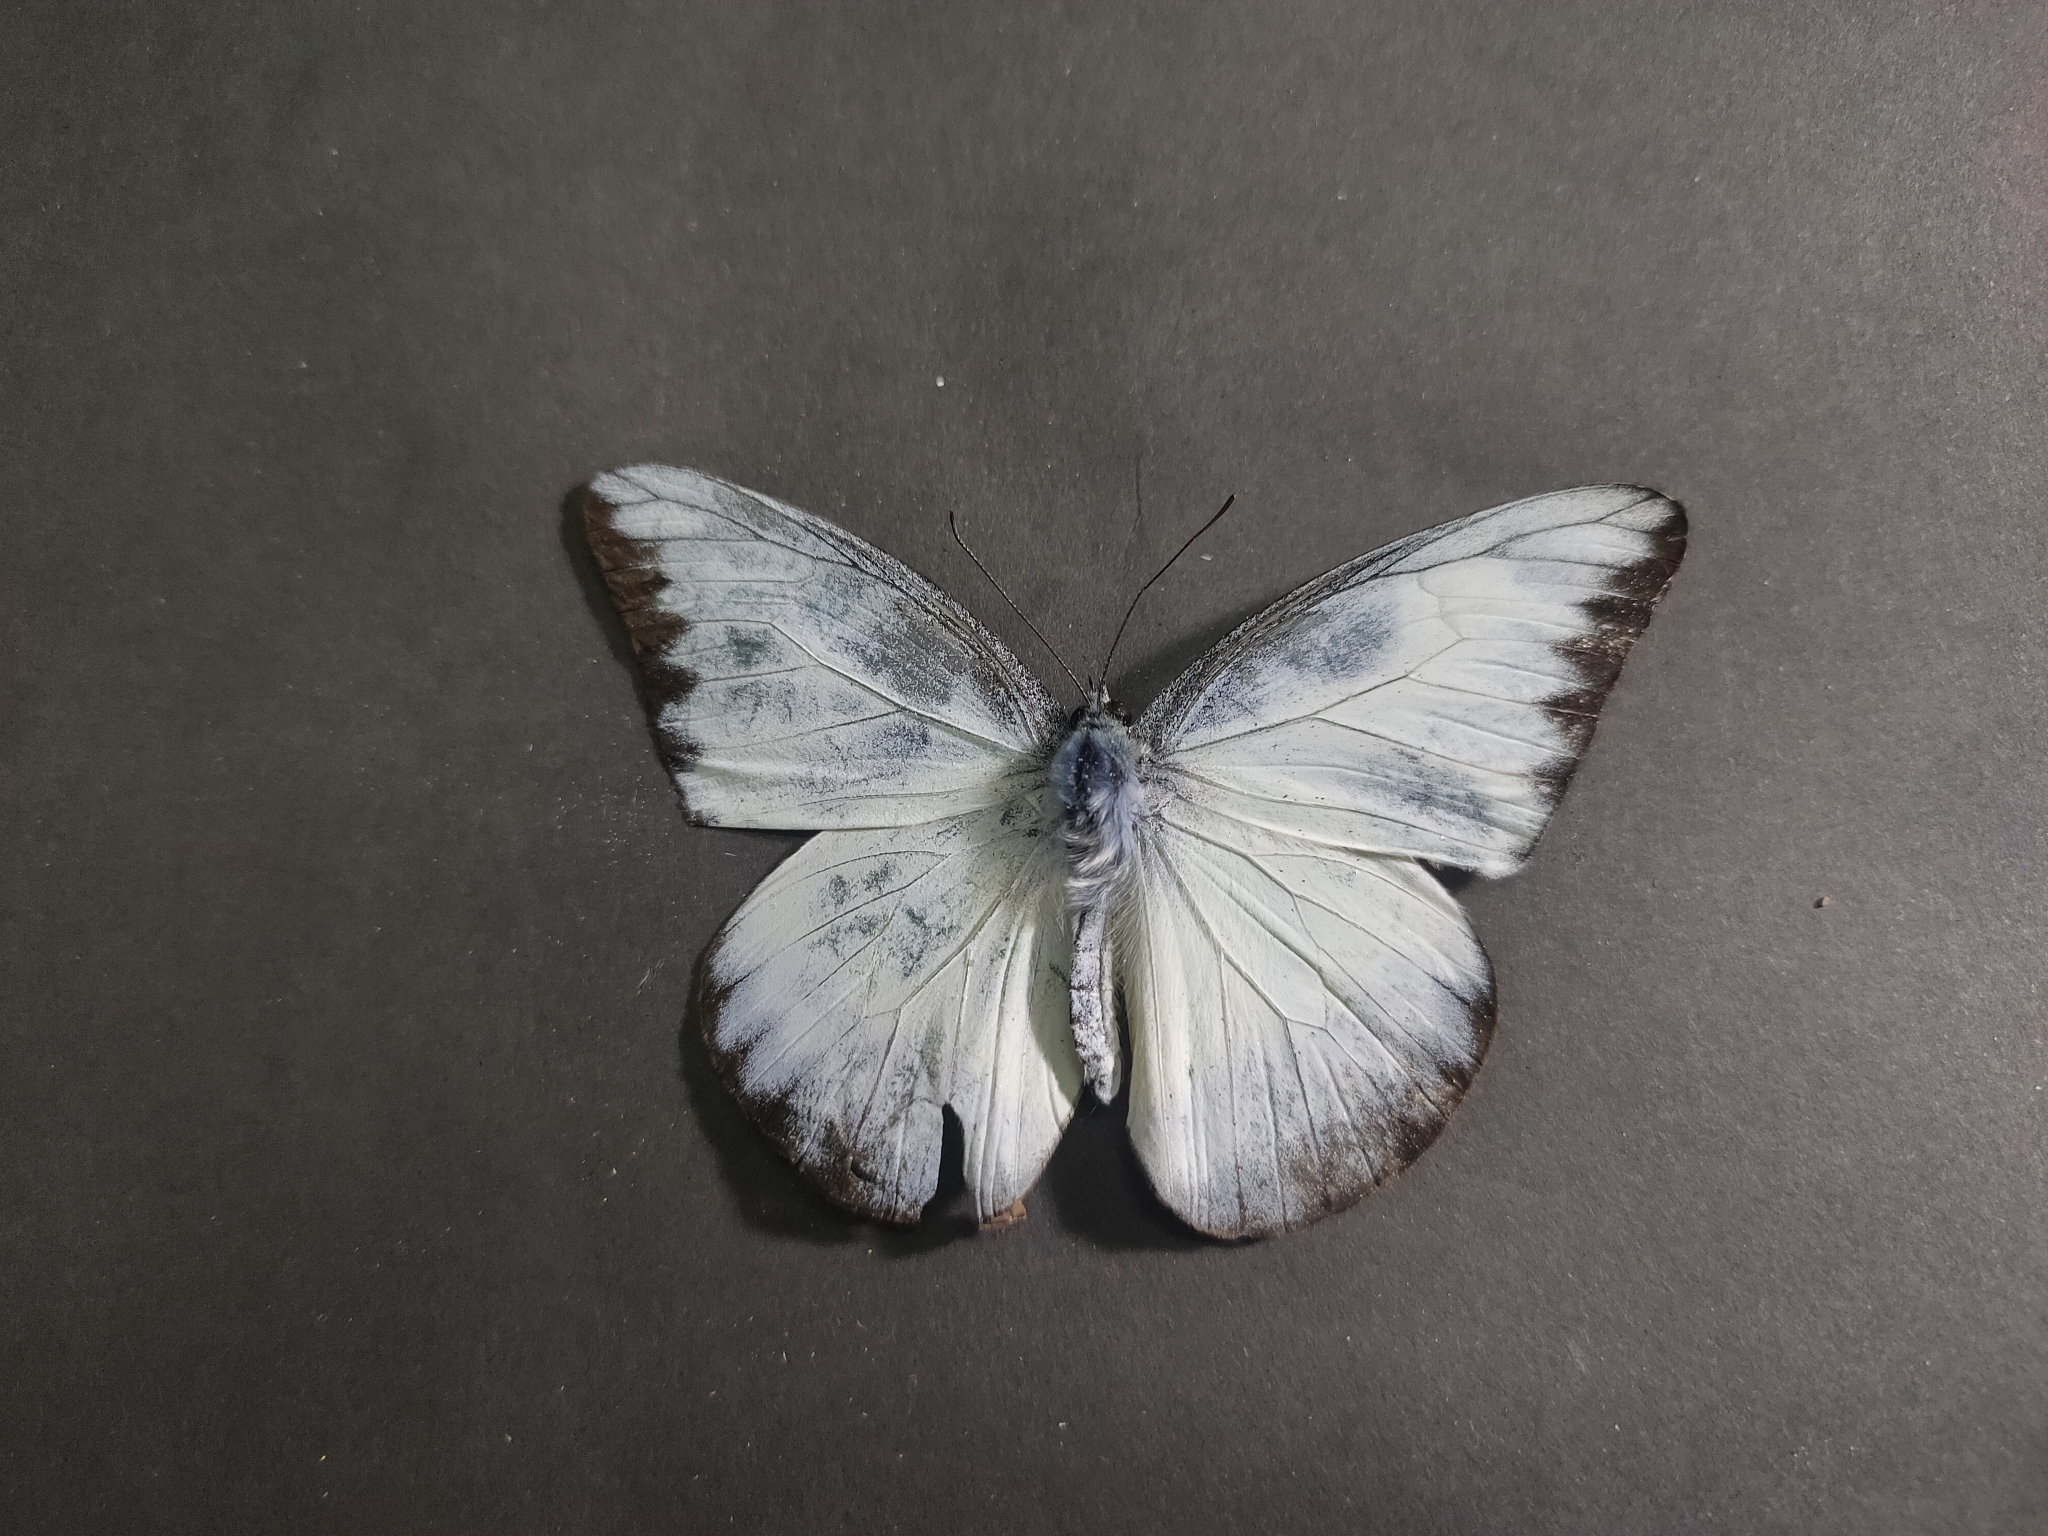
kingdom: Animalia
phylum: Arthropoda
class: Insecta
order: Lepidoptera
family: Pieridae
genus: Appias
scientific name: Appias lyncida
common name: Chocolate albatross
